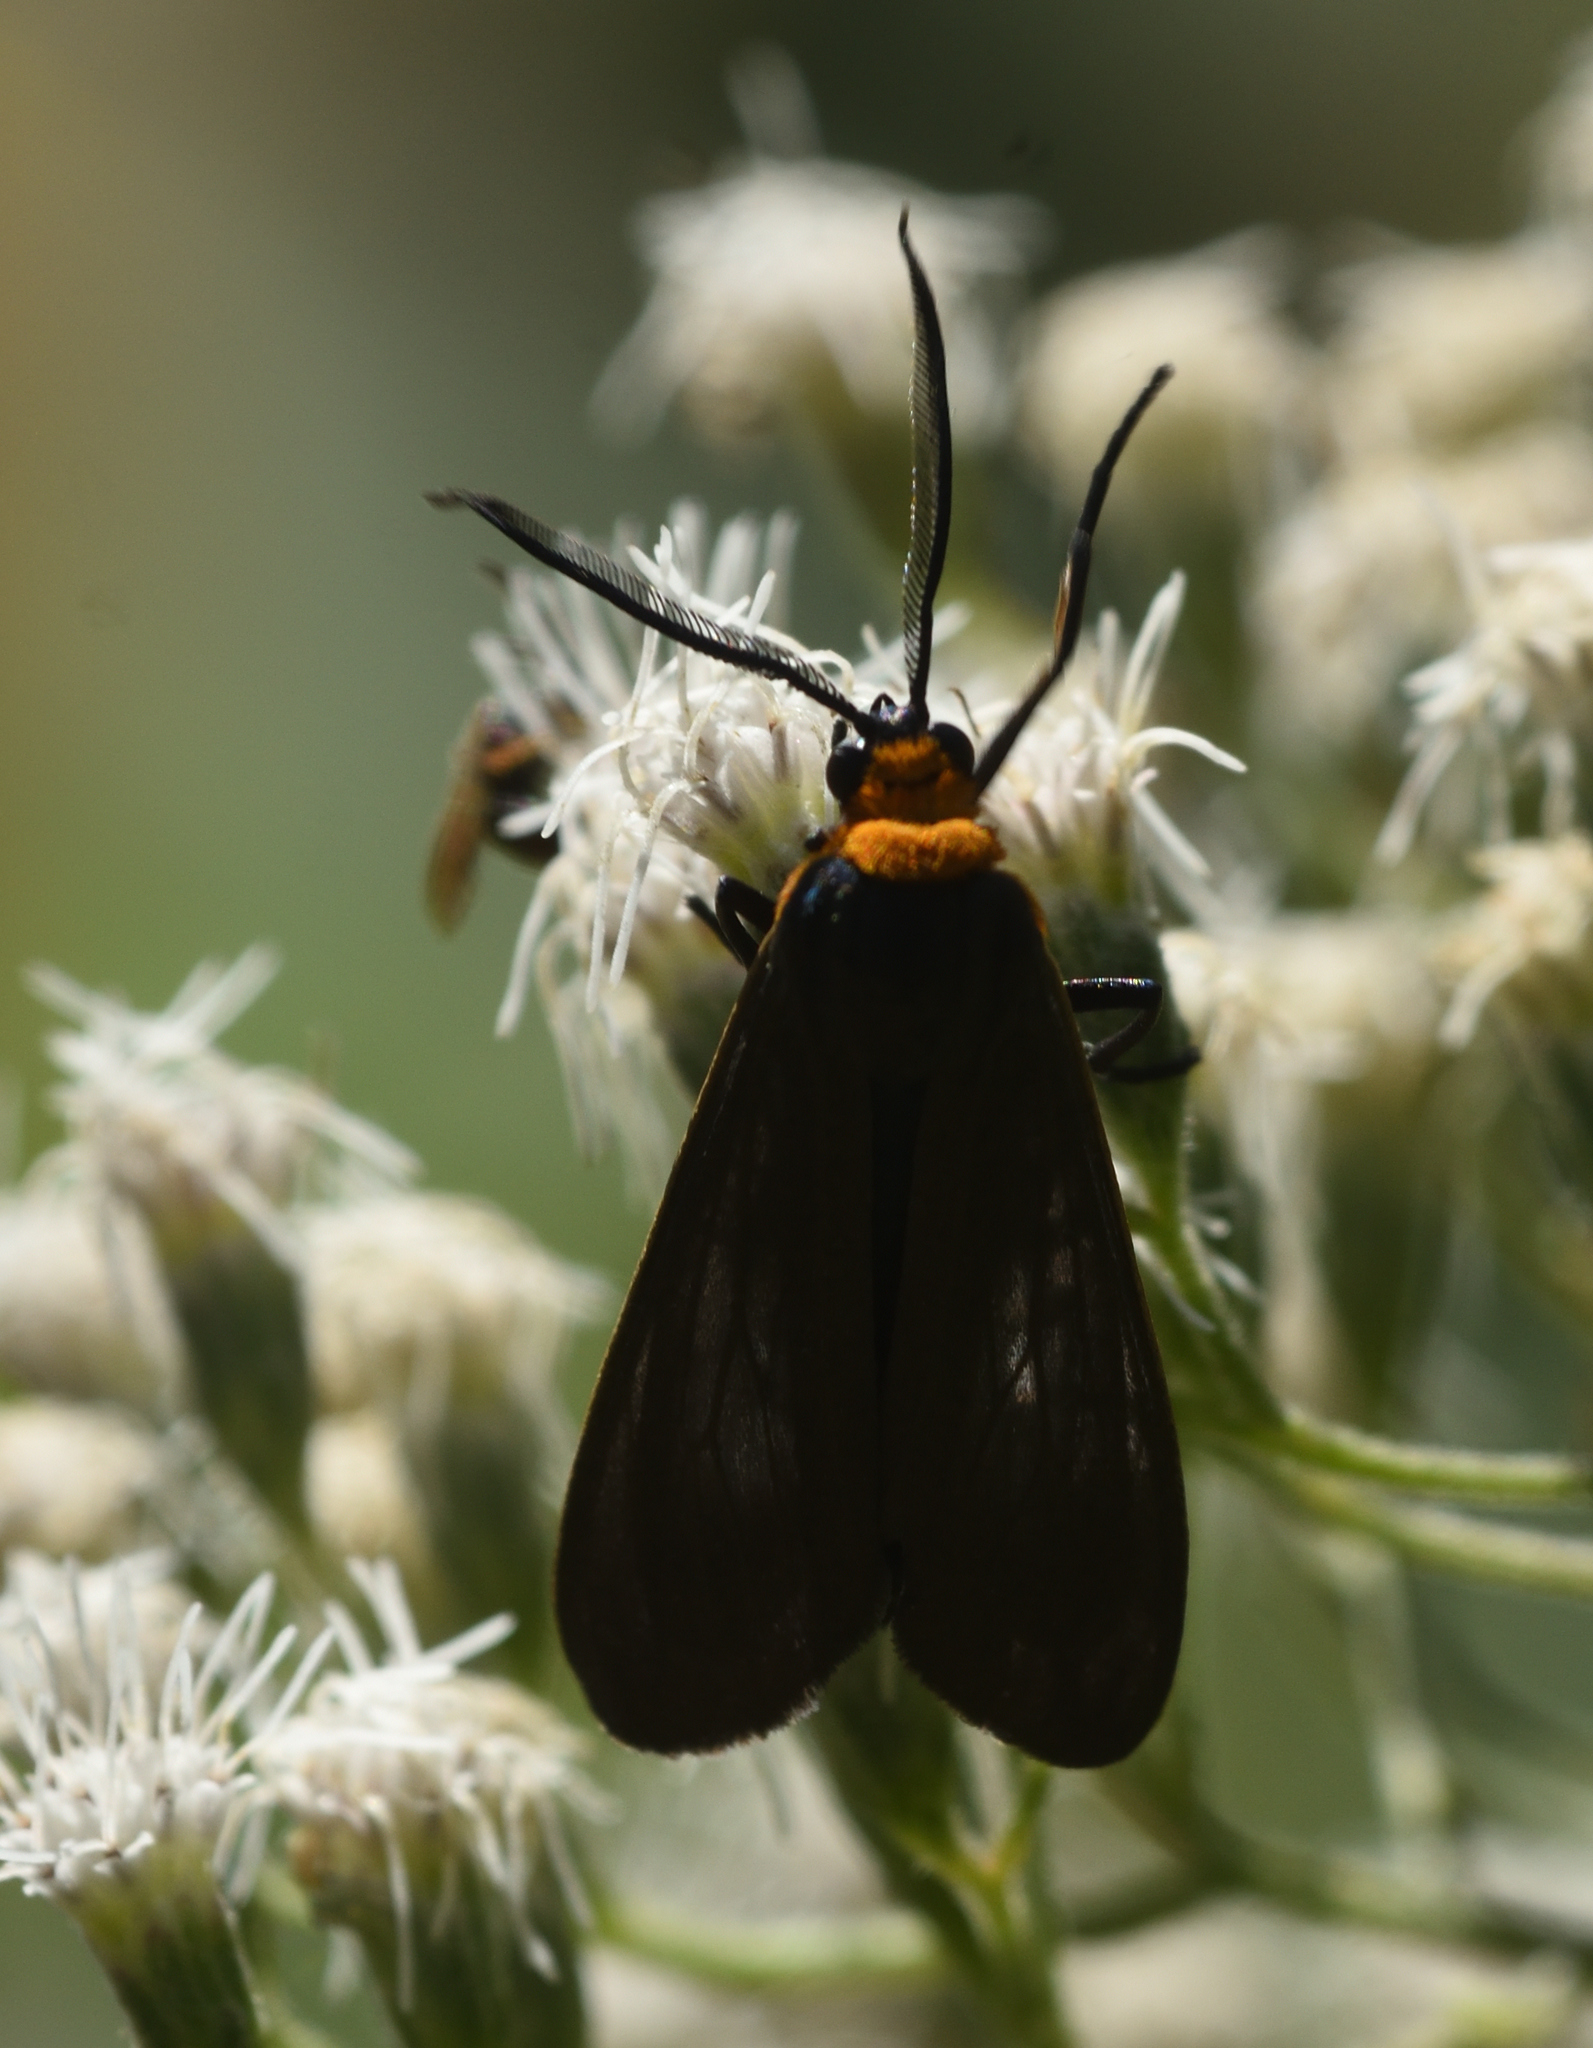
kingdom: Animalia
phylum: Arthropoda
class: Insecta
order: Lepidoptera
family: Erebidae
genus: Cisseps
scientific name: Cisseps fulvicollis
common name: Yellow-collared scape moth
